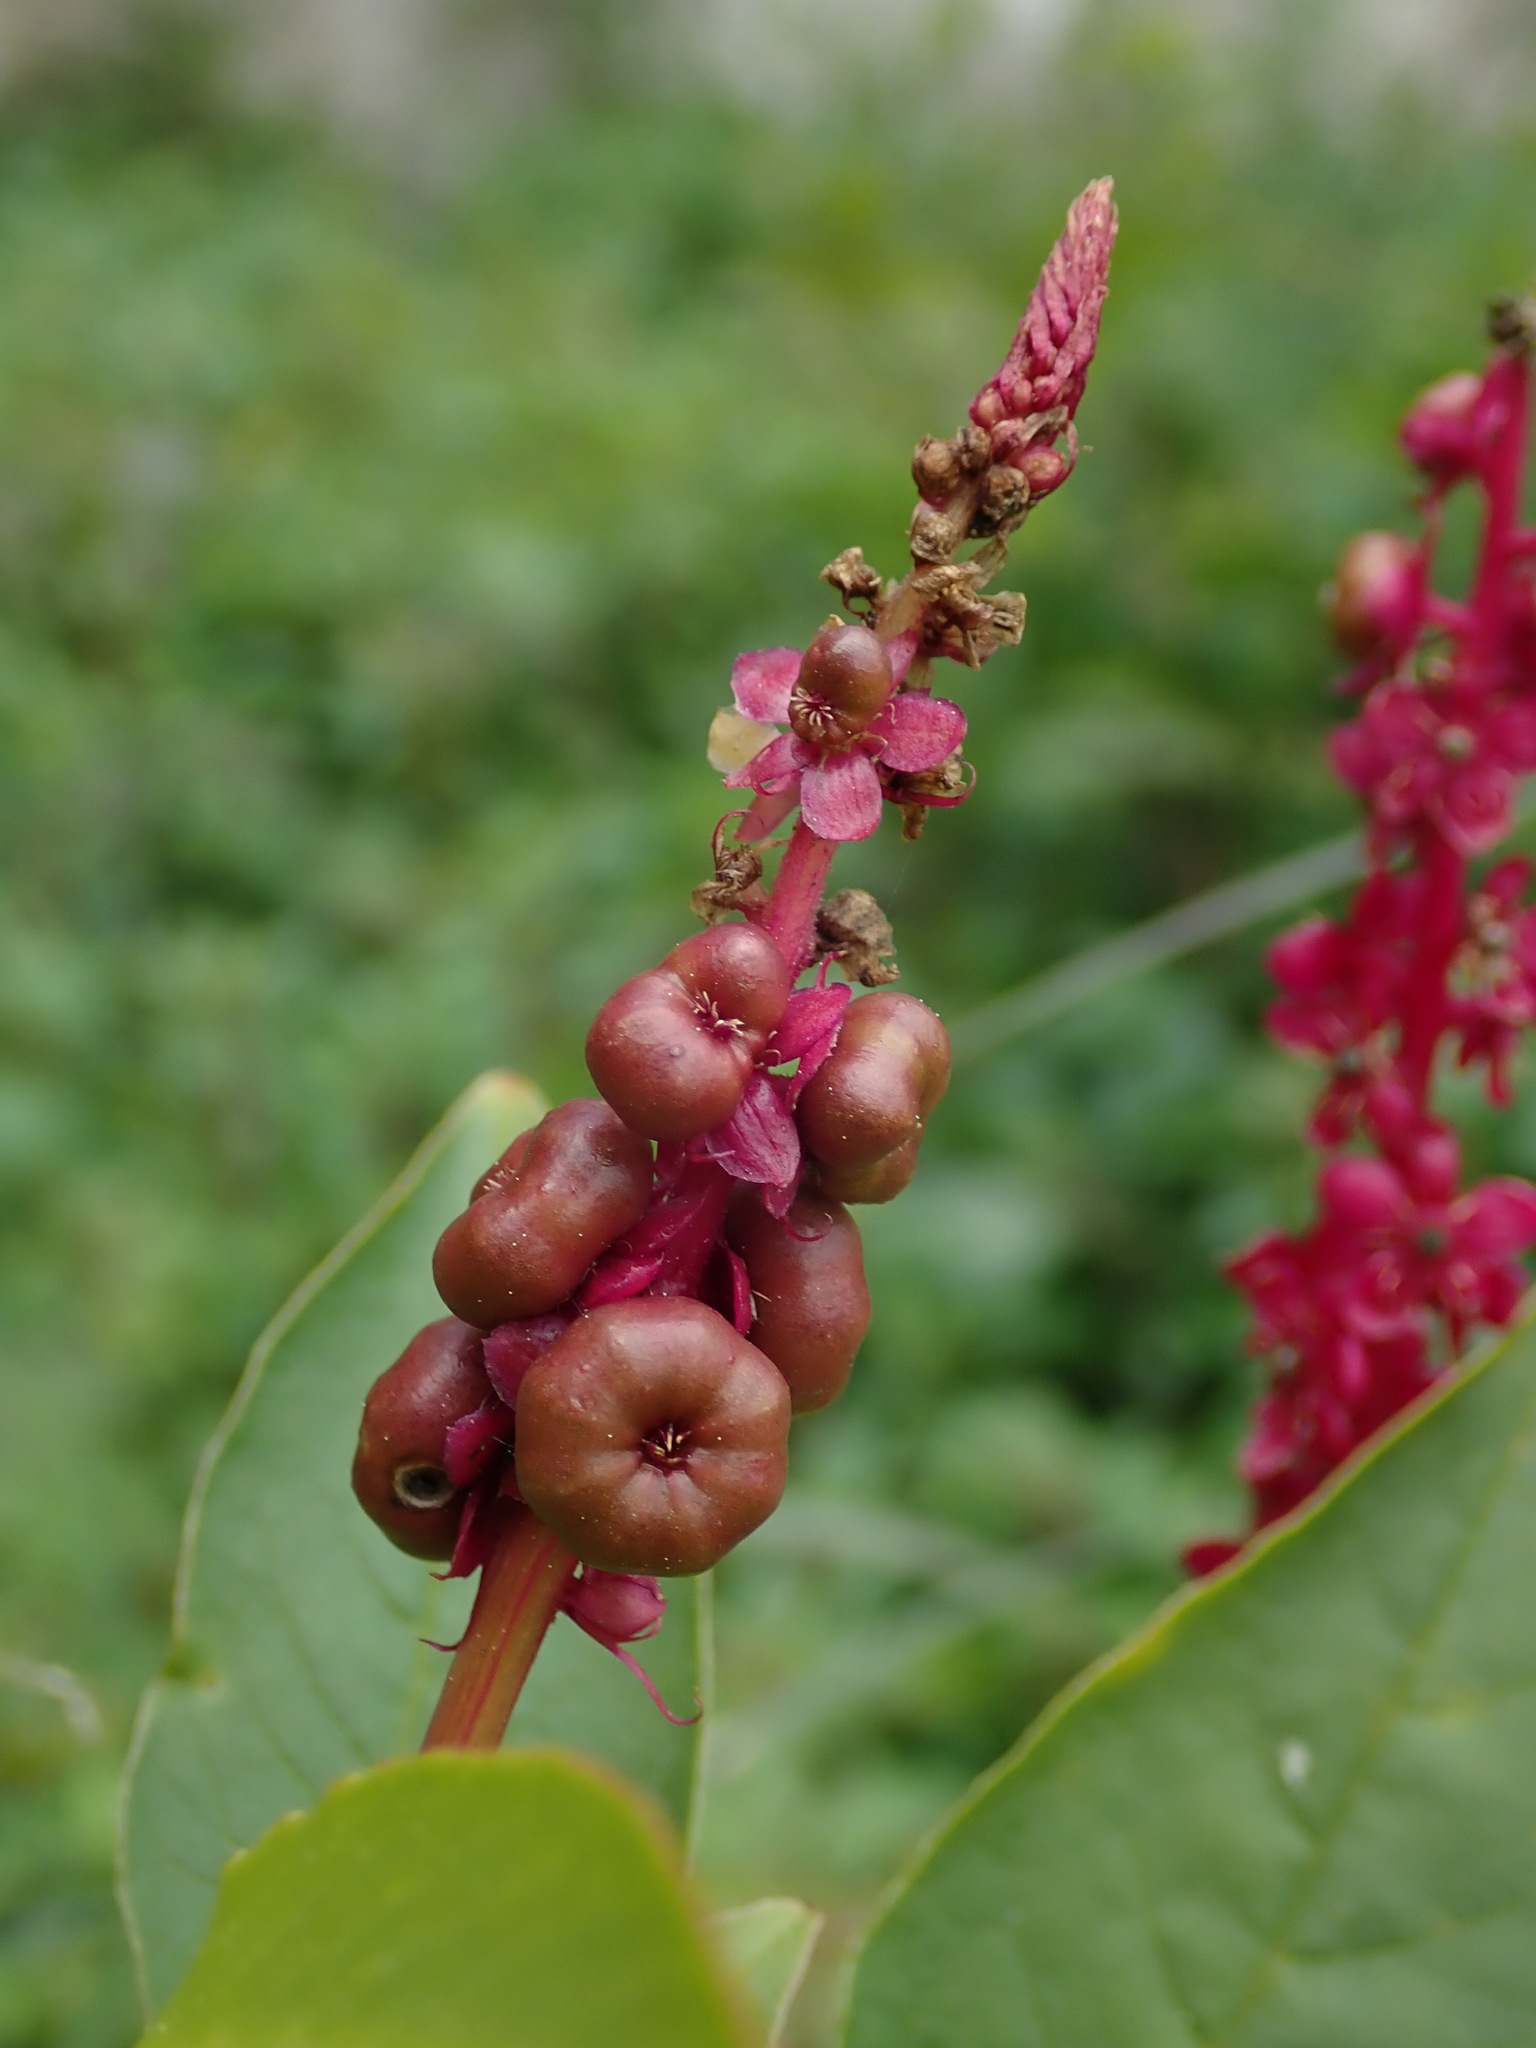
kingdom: Plantae
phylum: Tracheophyta
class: Magnoliopsida
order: Caryophyllales
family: Phytolaccaceae
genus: Phytolacca
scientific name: Phytolacca heterotepala
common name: Mexican pokeweed
